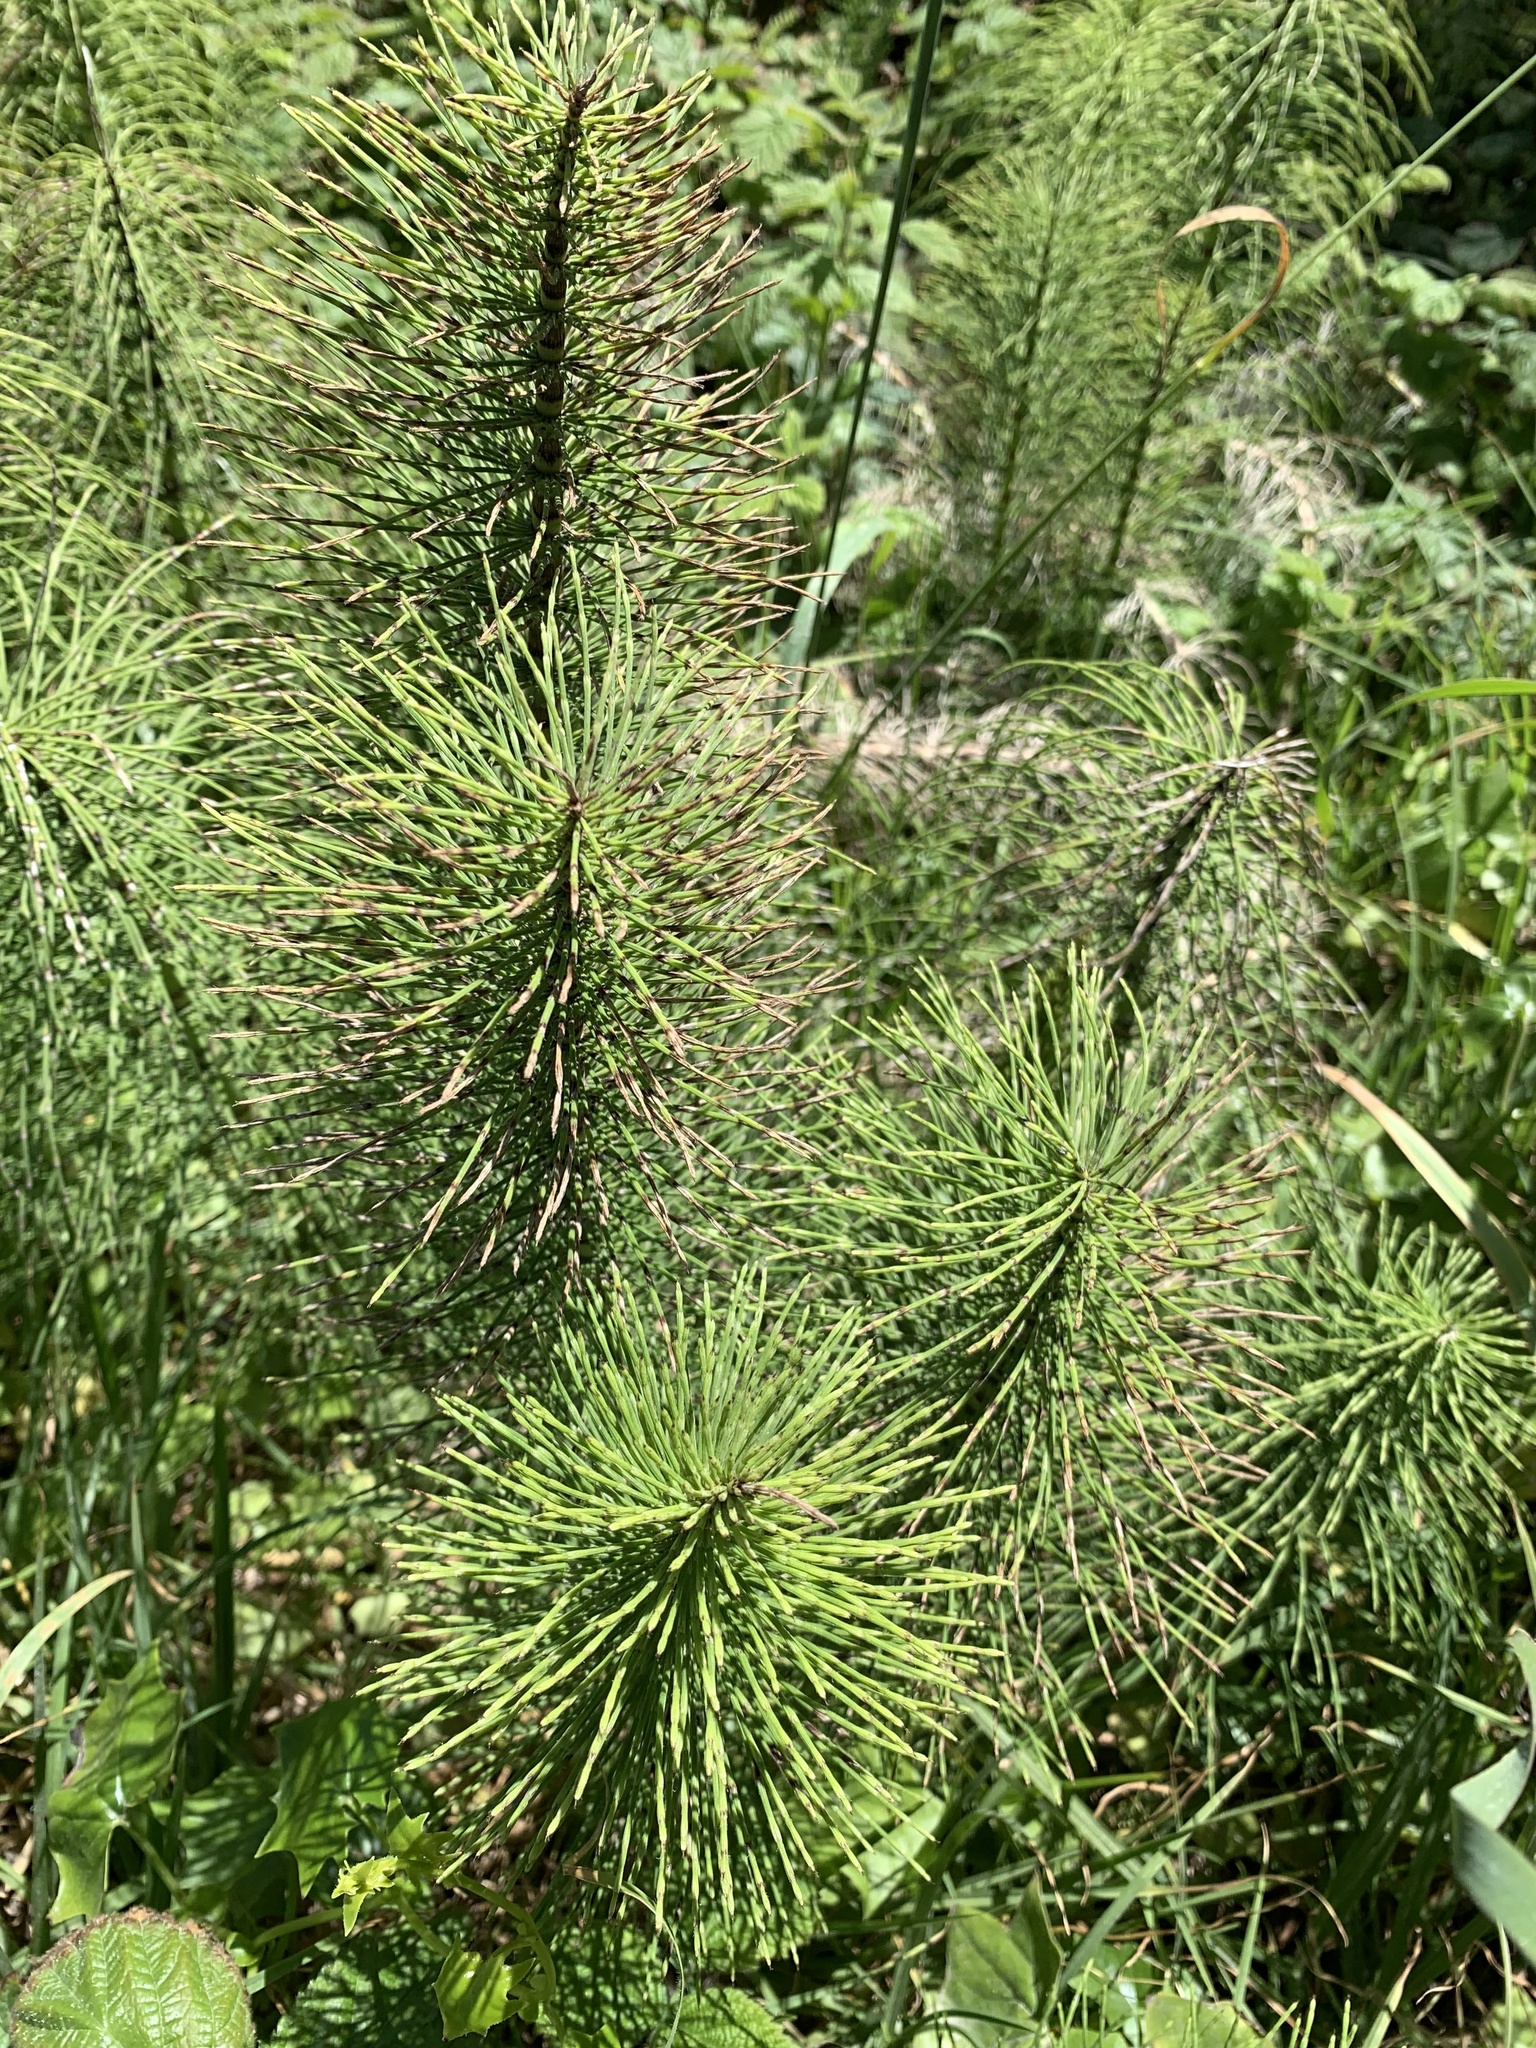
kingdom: Plantae
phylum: Tracheophyta
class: Polypodiopsida
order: Equisetales
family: Equisetaceae
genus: Equisetum
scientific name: Equisetum braunii
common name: Braun's horsetail
